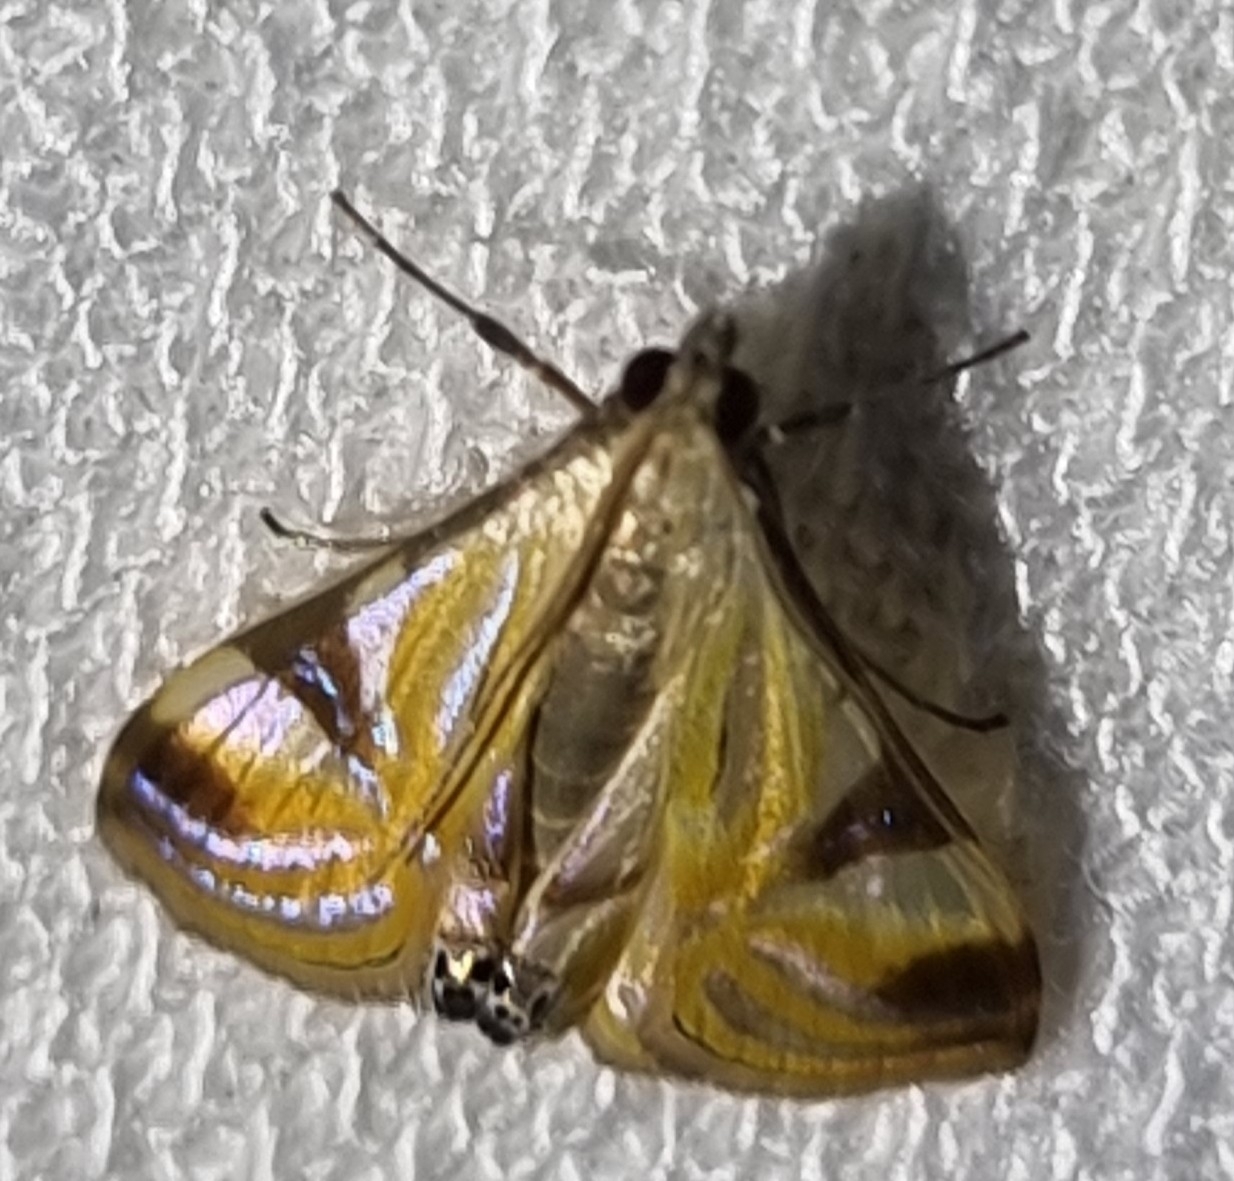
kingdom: Animalia
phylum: Arthropoda
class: Insecta
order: Lepidoptera
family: Crambidae
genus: Talanga
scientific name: Talanga tolumnialis
